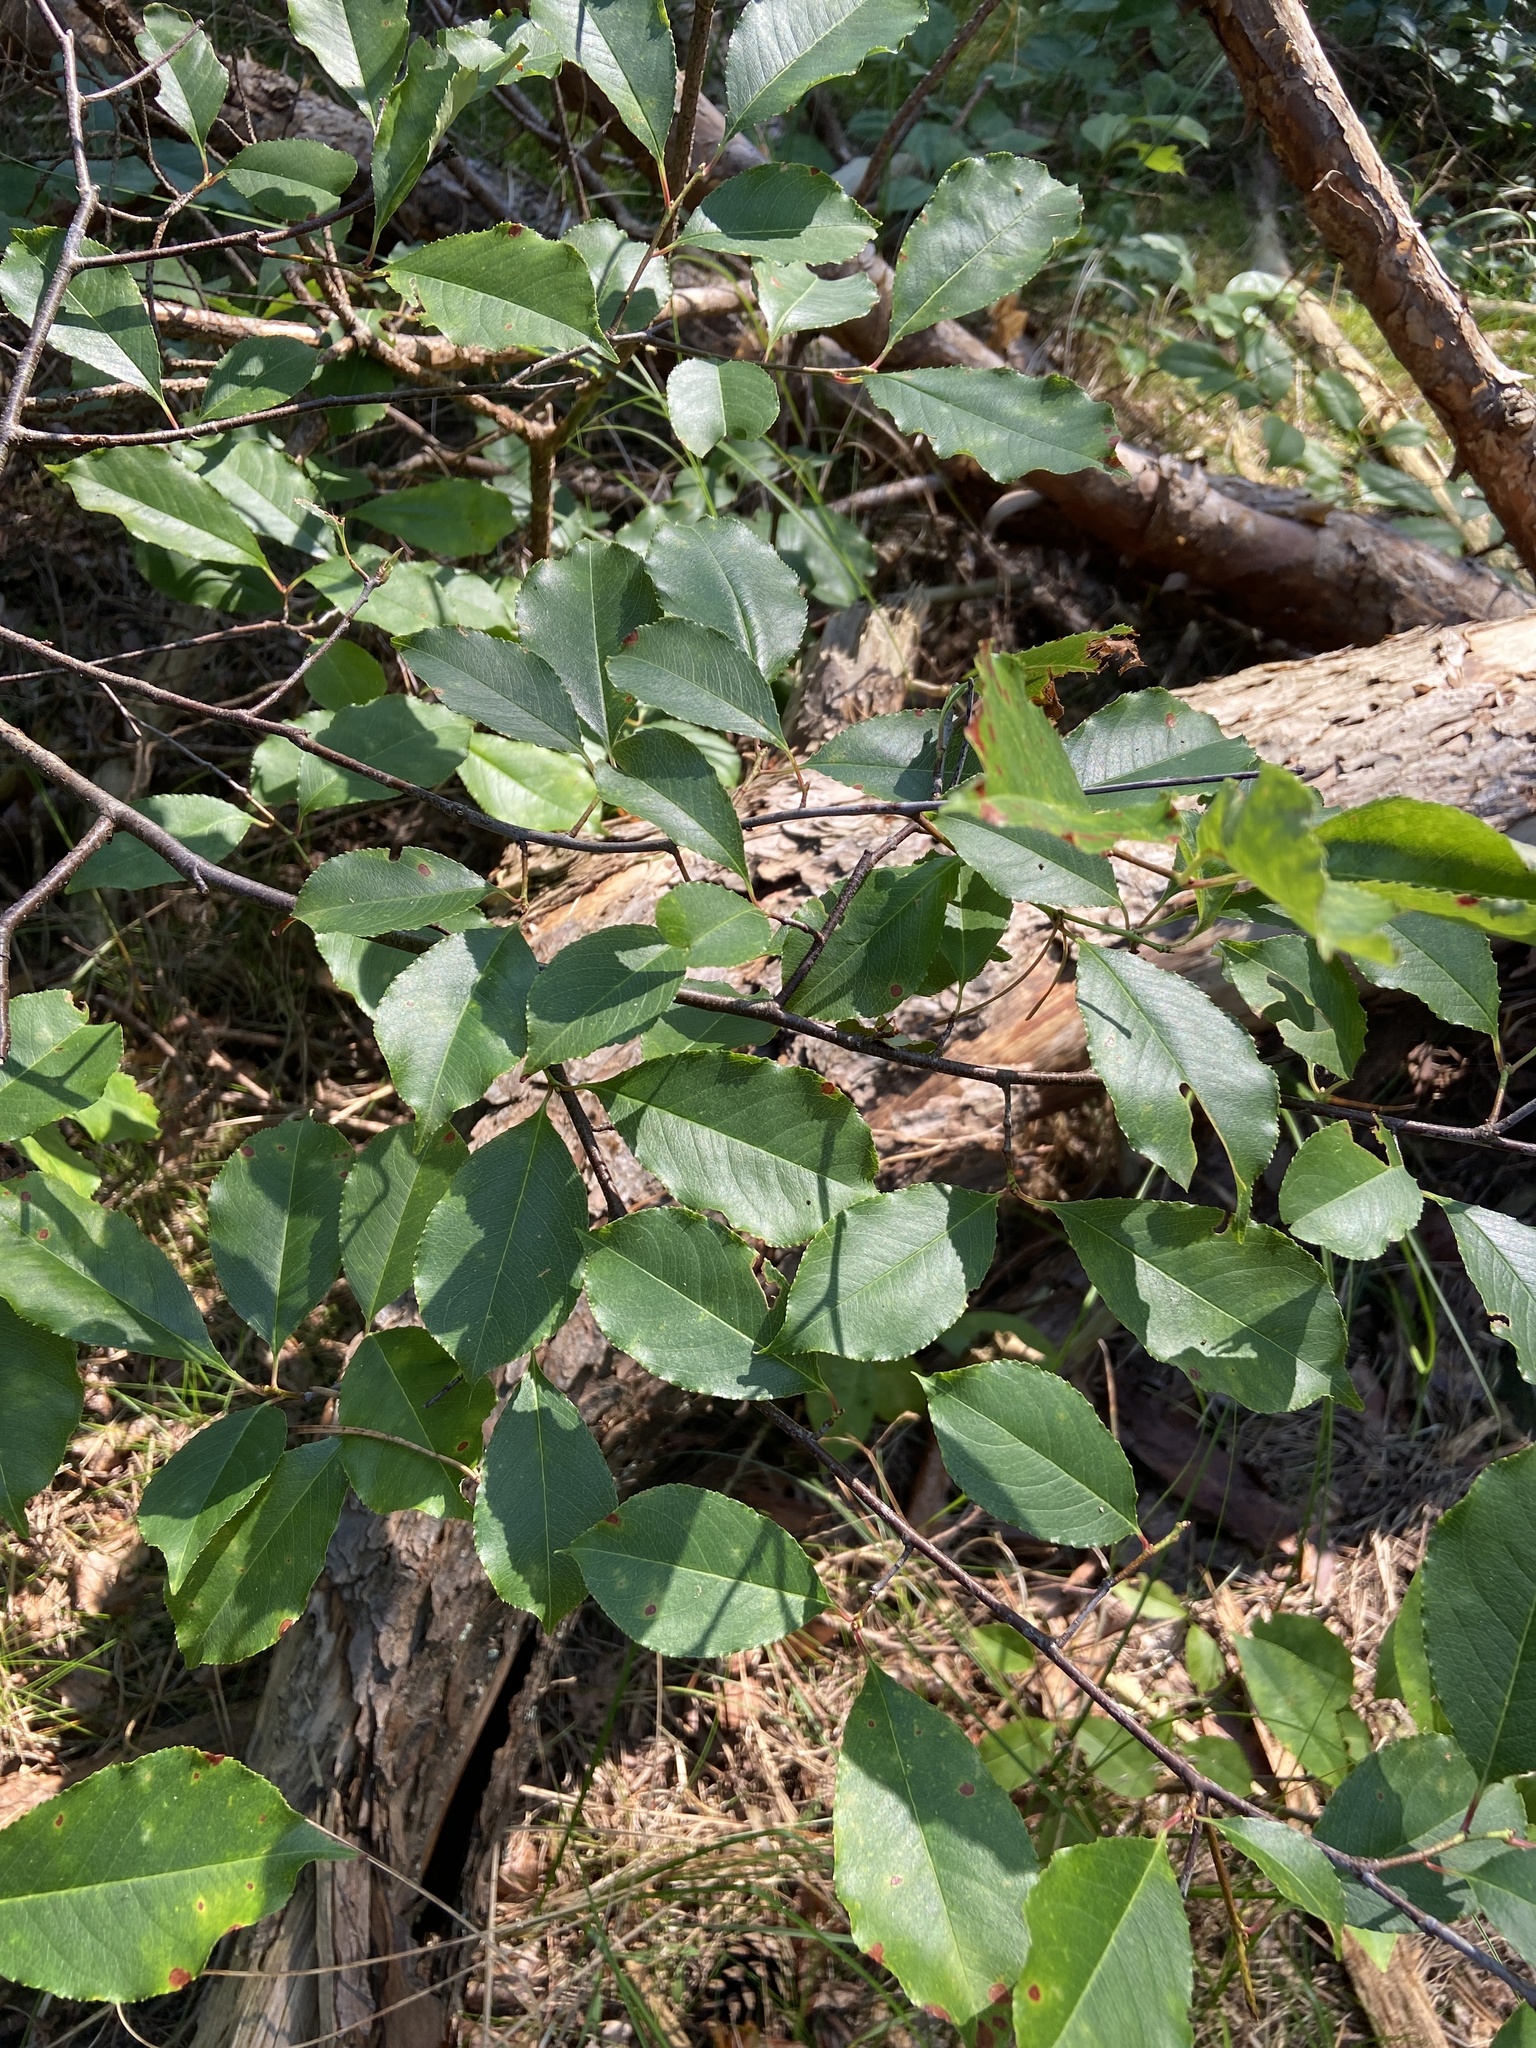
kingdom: Plantae
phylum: Tracheophyta
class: Magnoliopsida
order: Rosales
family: Rosaceae
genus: Prunus
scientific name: Prunus serotina
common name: Black cherry
